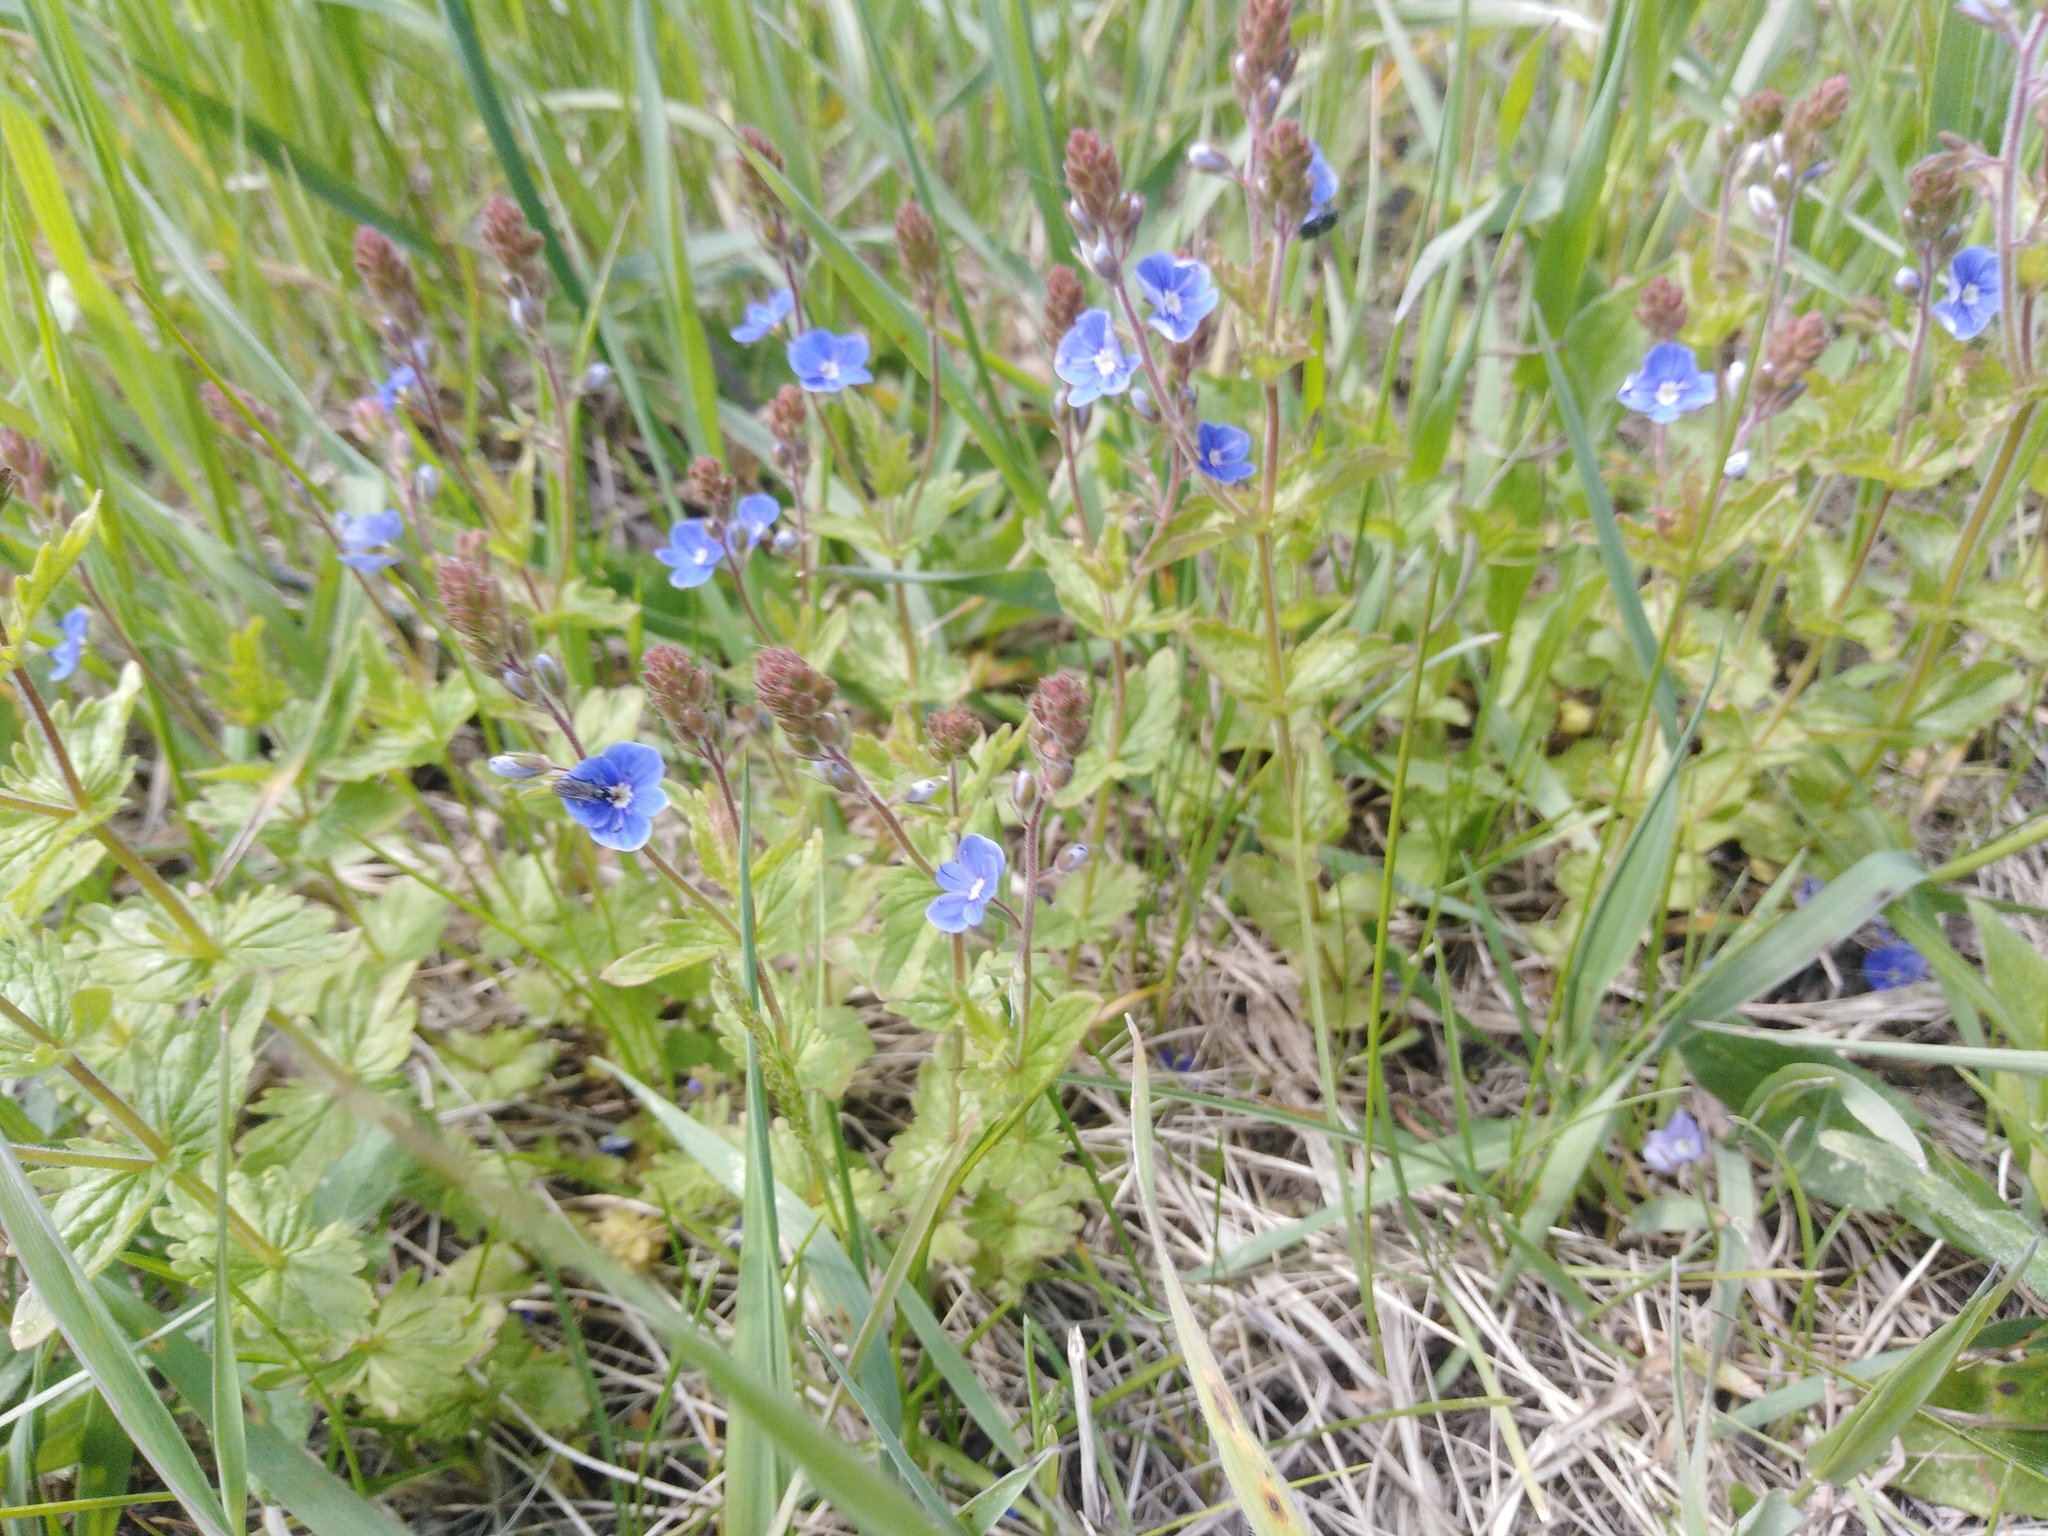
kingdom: Plantae
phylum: Tracheophyta
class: Magnoliopsida
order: Lamiales
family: Plantaginaceae
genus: Veronica
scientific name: Veronica chamaedrys
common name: Germander speedwell
